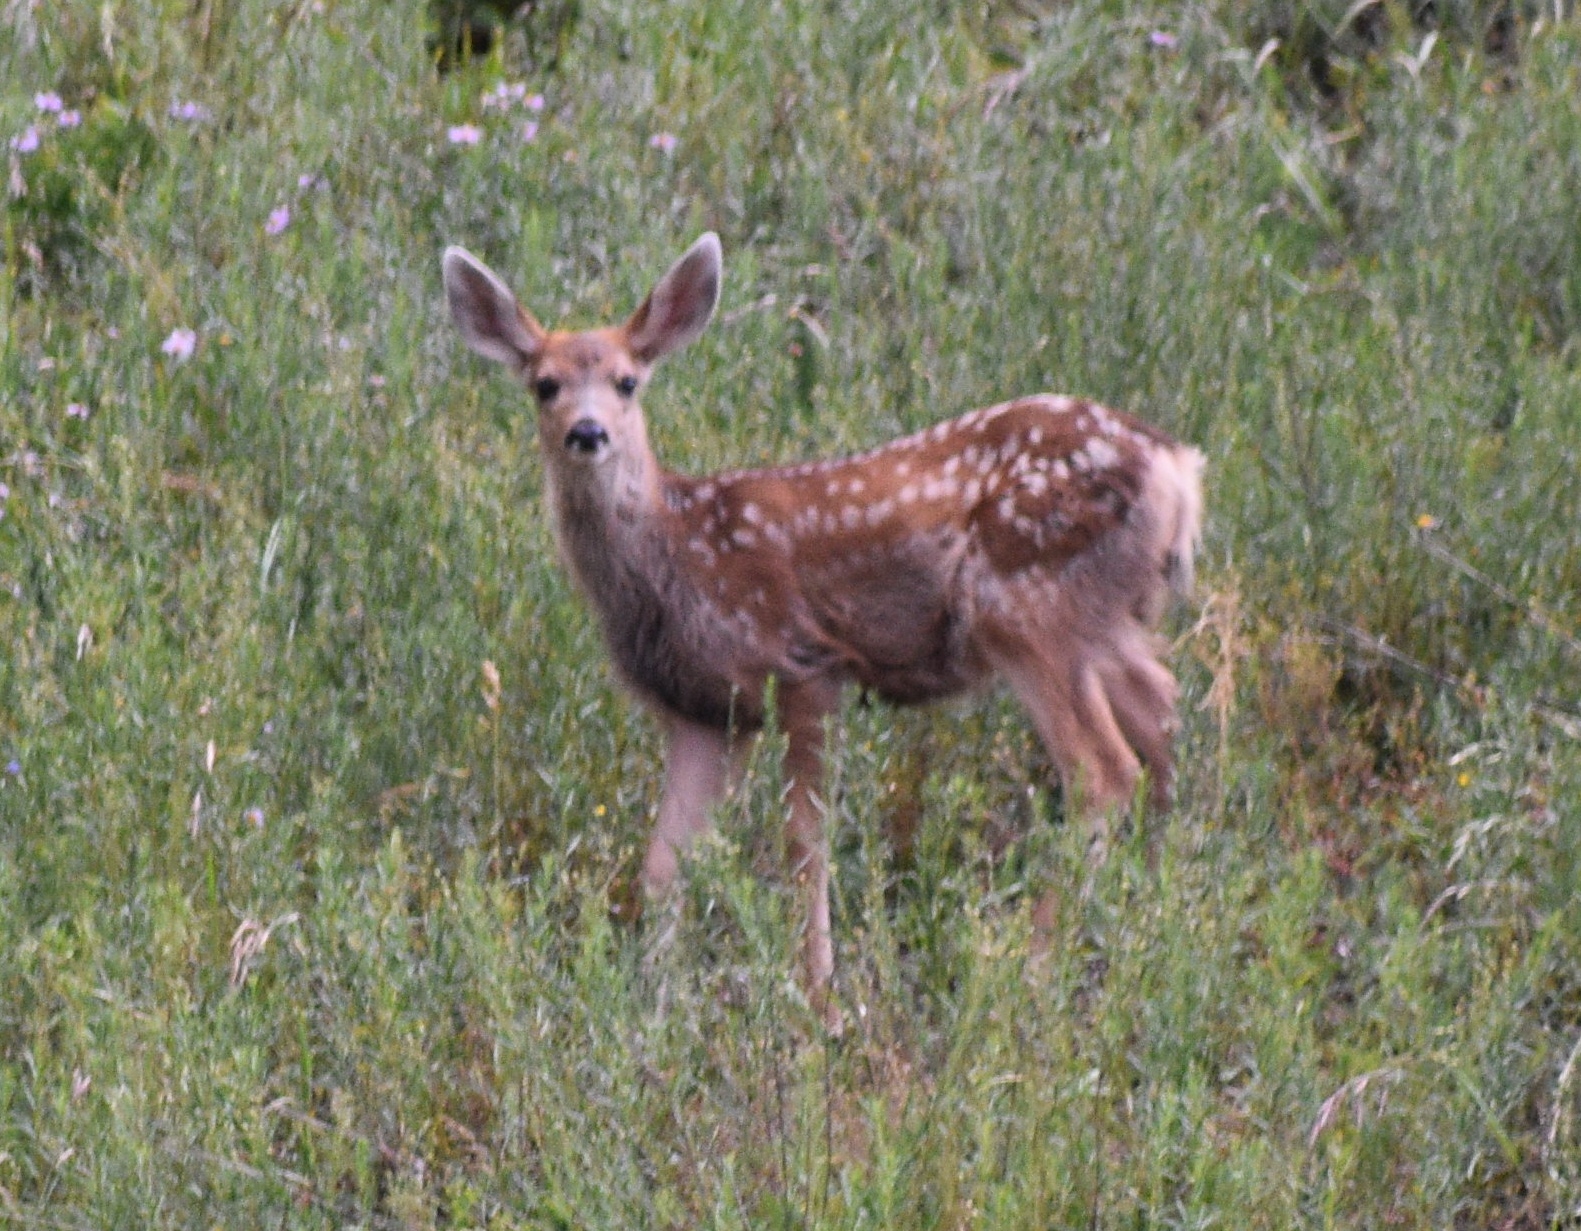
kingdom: Animalia
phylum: Chordata
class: Mammalia
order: Artiodactyla
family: Cervidae
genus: Odocoileus
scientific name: Odocoileus hemionus
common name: Mule deer
